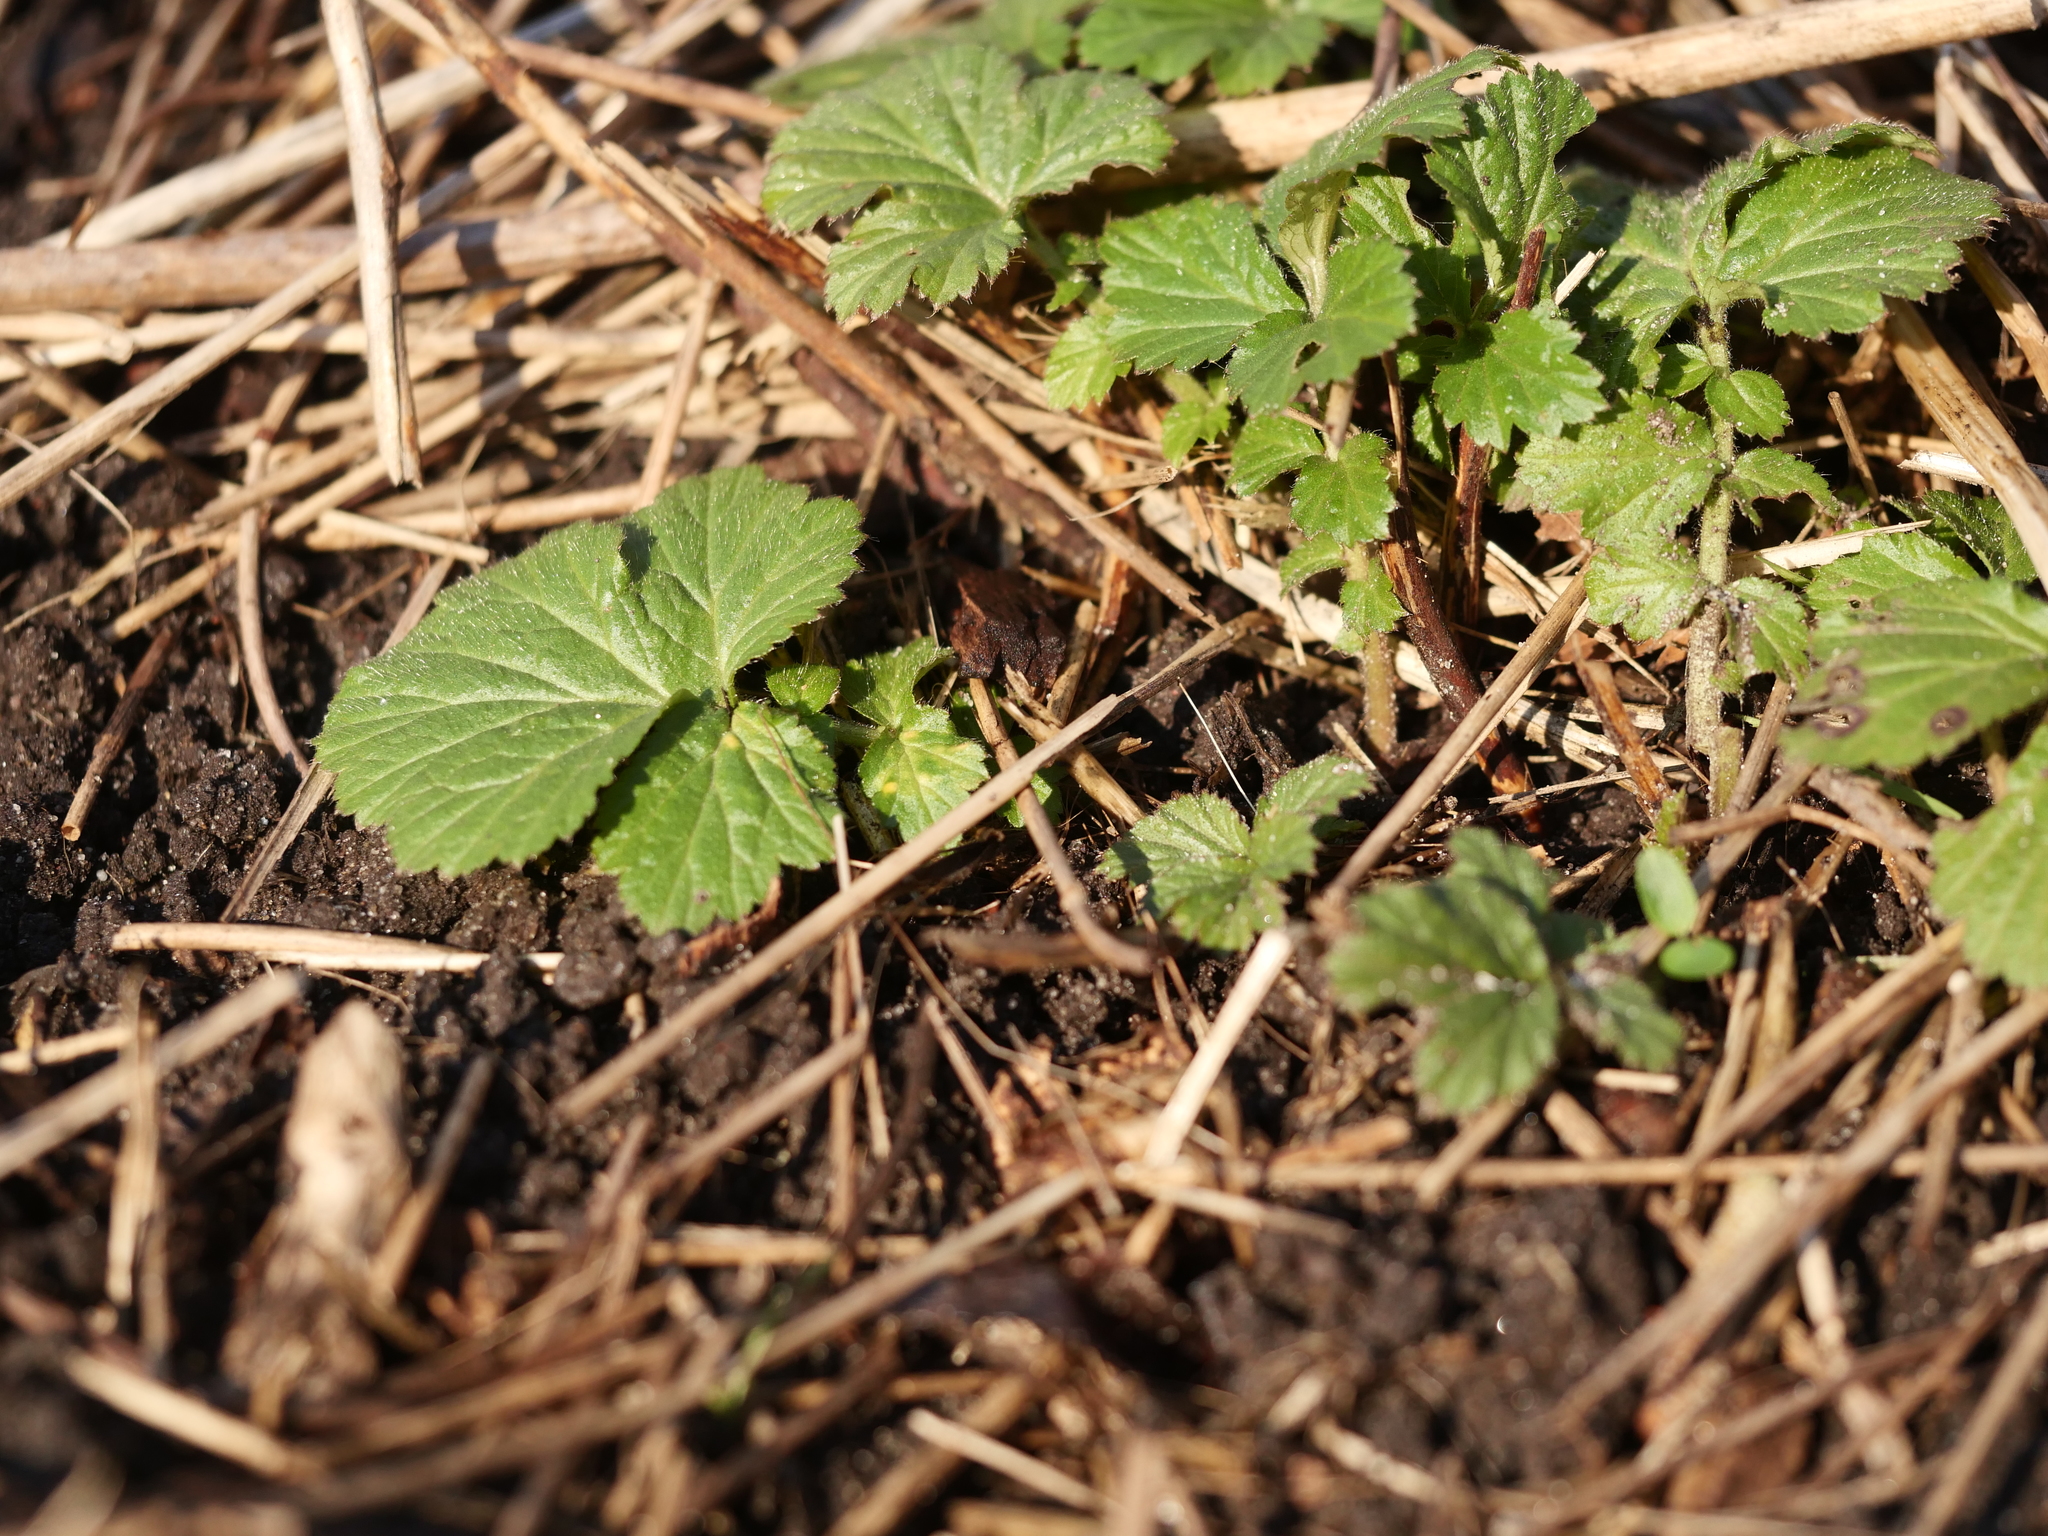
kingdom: Plantae
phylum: Tracheophyta
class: Magnoliopsida
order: Rosales
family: Rosaceae
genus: Geum
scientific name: Geum urbanum
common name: Wood avens
